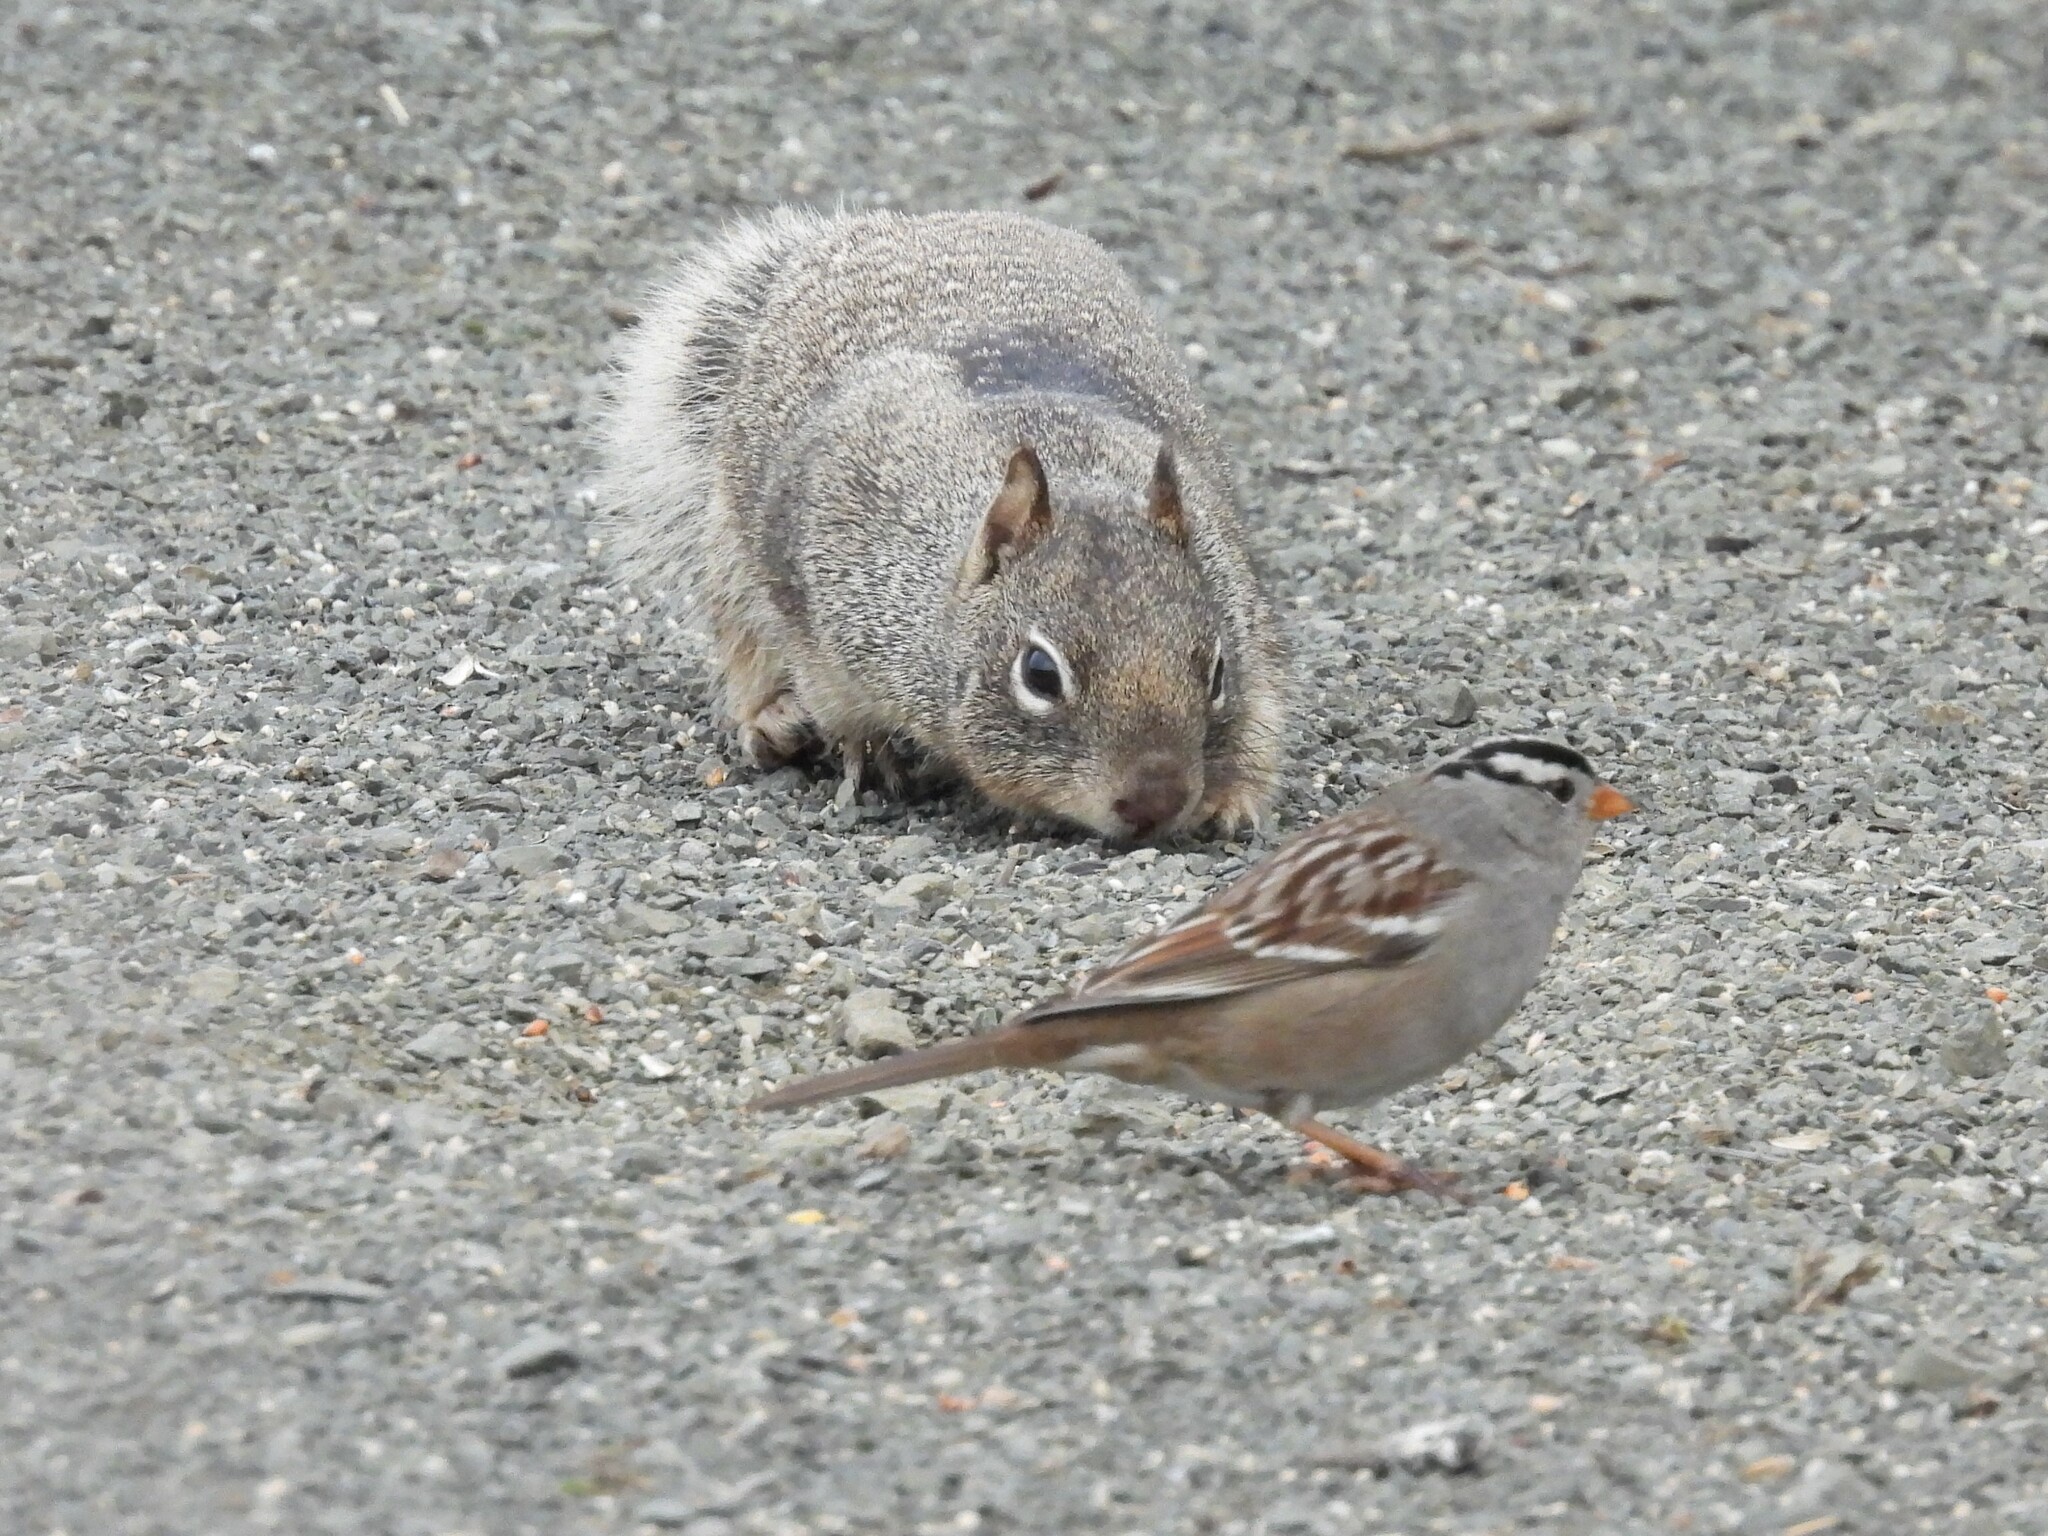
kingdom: Animalia
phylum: Chordata
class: Mammalia
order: Rodentia
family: Sciuridae
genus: Otospermophilus
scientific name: Otospermophilus beecheyi
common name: California ground squirrel
